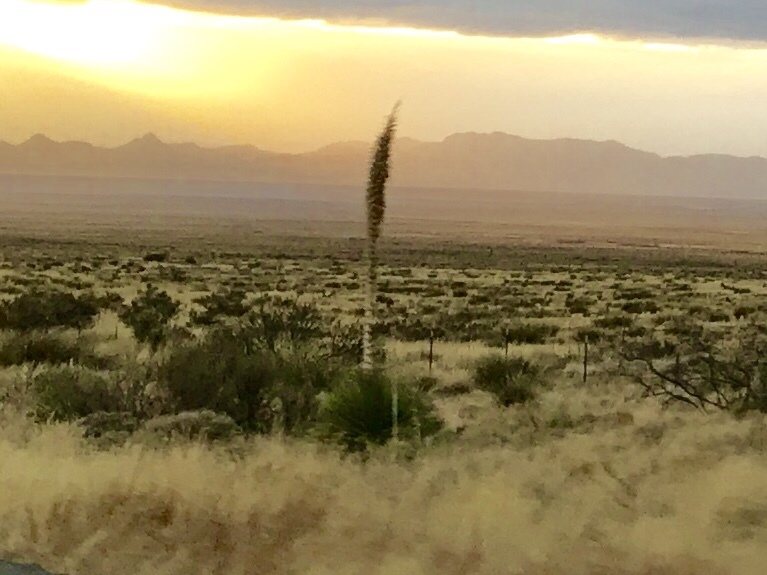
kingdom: Plantae
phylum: Tracheophyta
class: Liliopsida
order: Asparagales
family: Asparagaceae
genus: Dasylirion
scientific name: Dasylirion wheeleri
